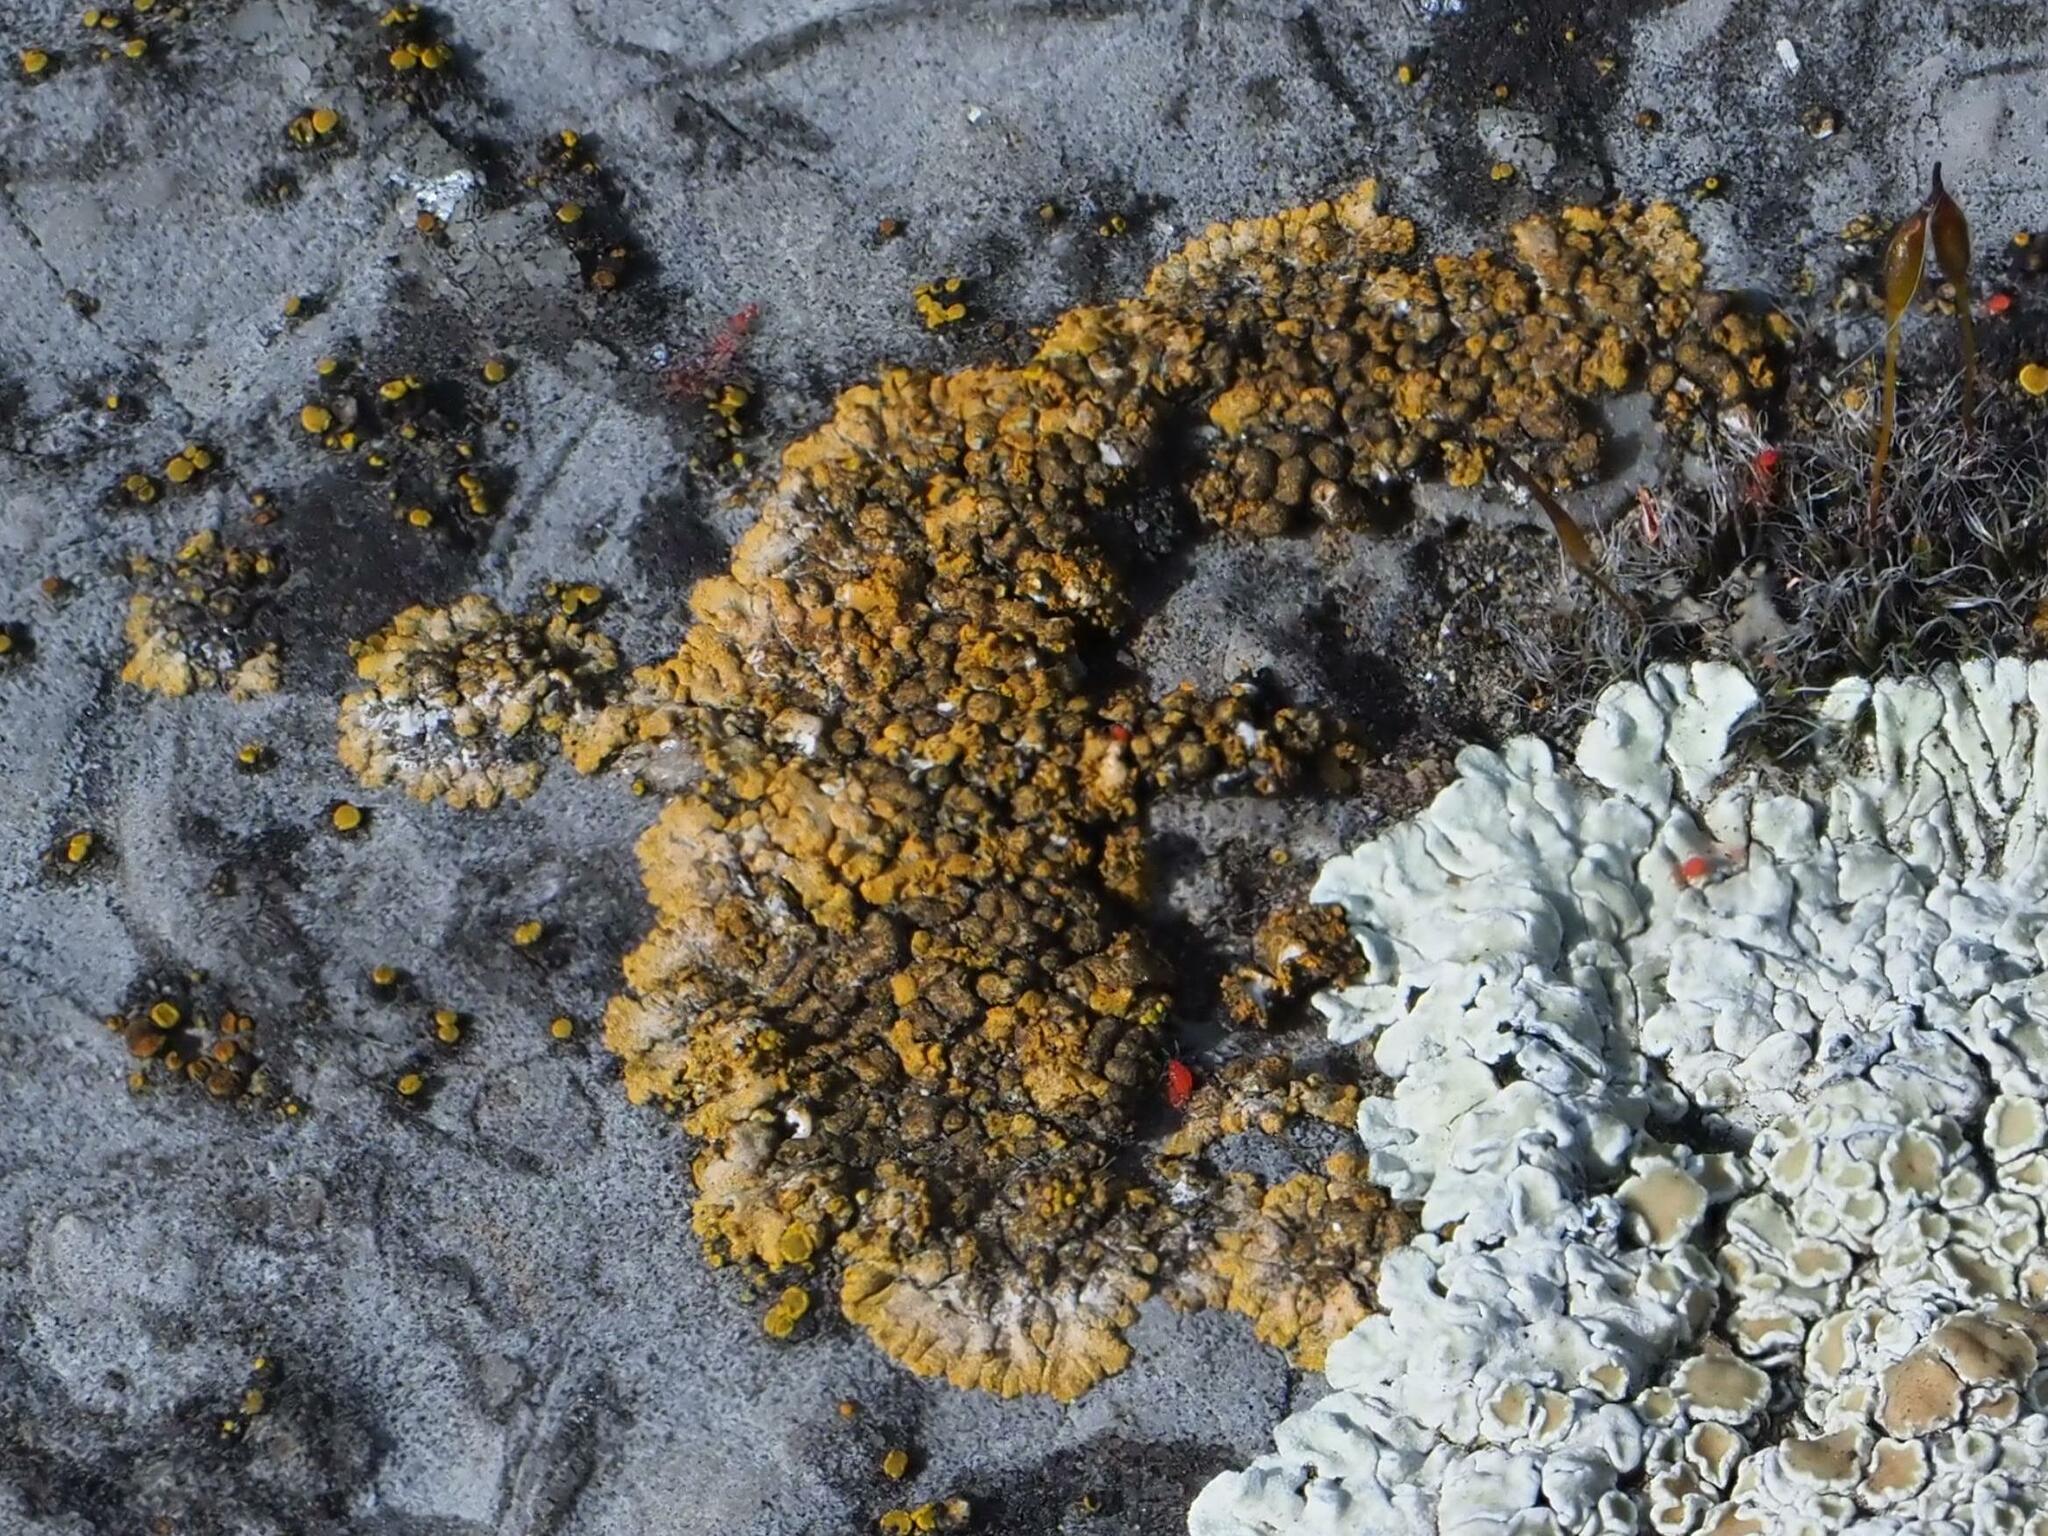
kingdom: Fungi
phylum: Ascomycota
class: Lecanoromycetes
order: Teloschistales
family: Teloschistaceae
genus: Calogaya
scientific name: Calogaya decipiens
